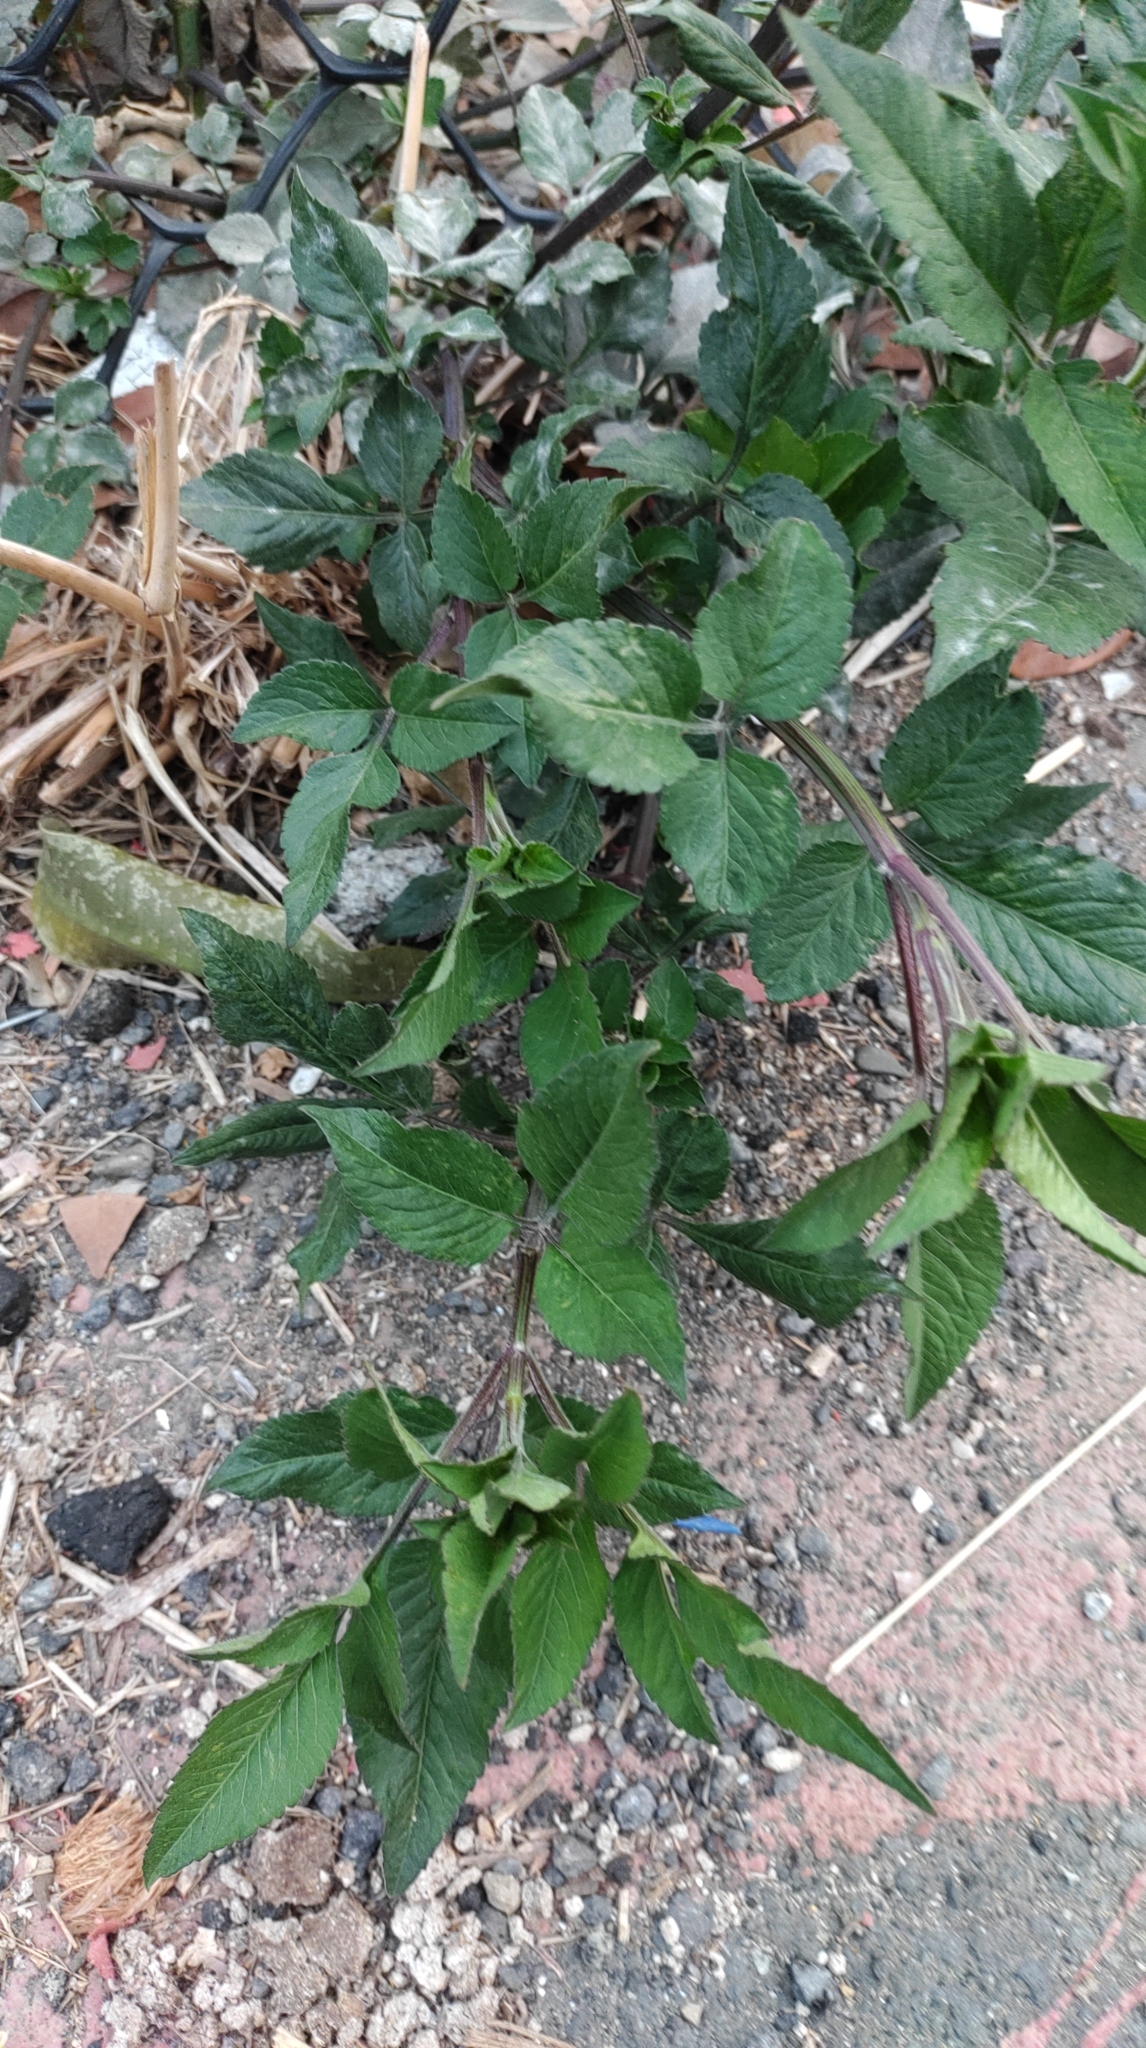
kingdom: Plantae
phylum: Tracheophyta
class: Magnoliopsida
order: Asterales
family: Asteraceae
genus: Bidens
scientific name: Bidens alba
